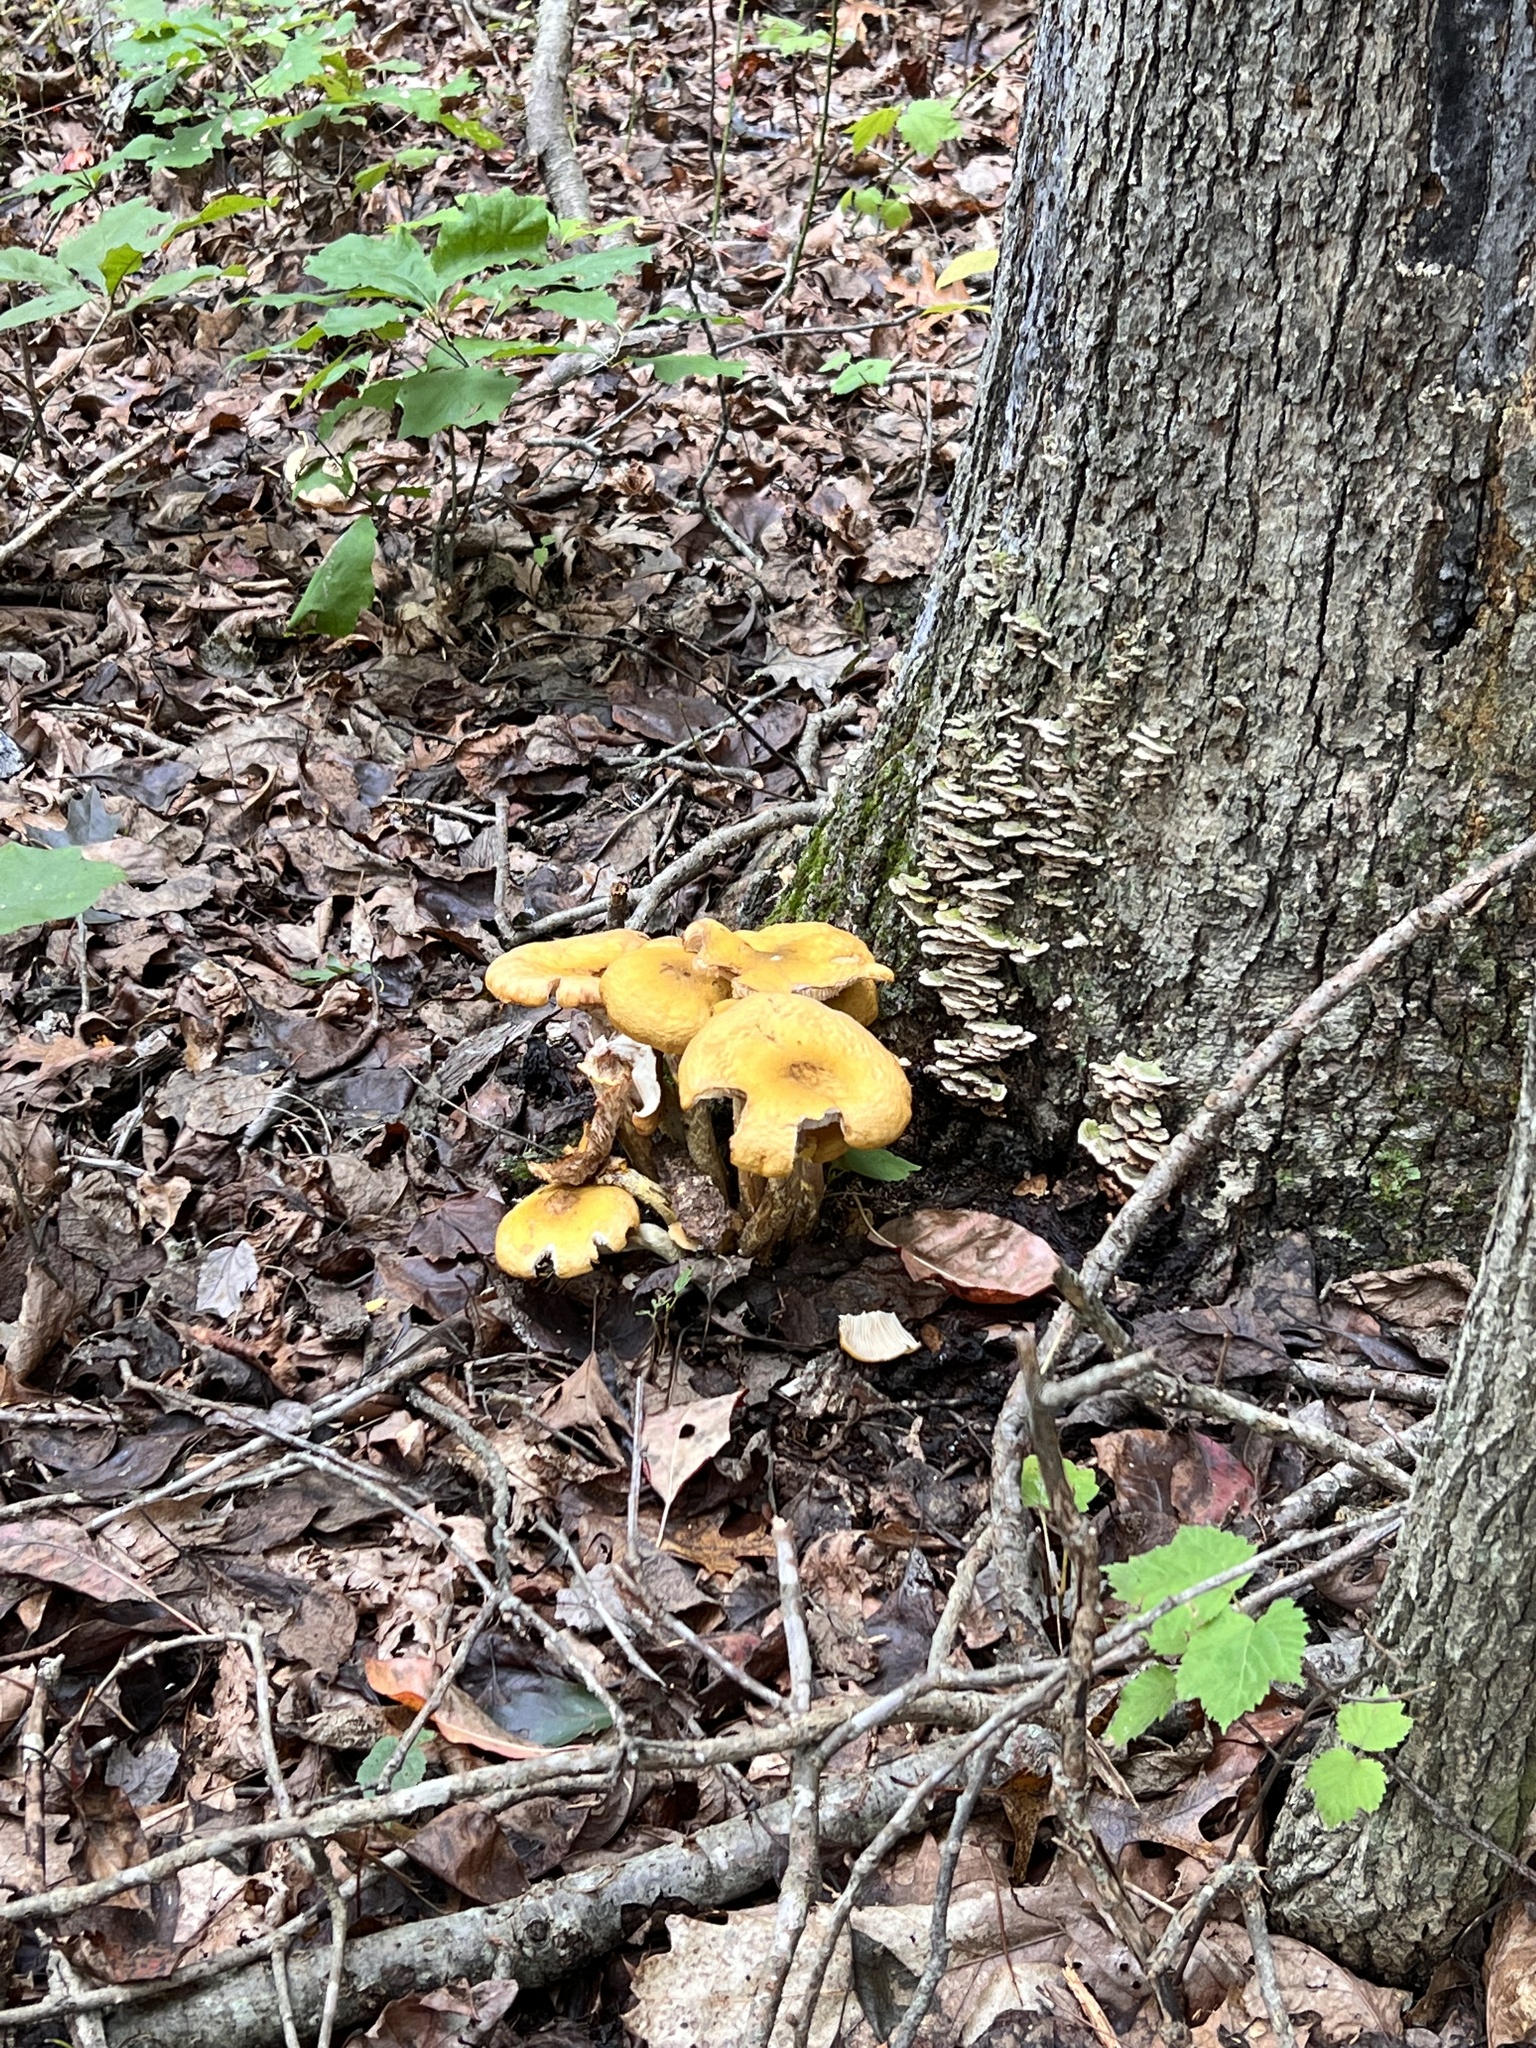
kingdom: Fungi
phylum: Basidiomycota
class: Agaricomycetes
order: Agaricales
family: Physalacriaceae
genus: Armillaria
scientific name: Armillaria mellea
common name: Honey fungus
